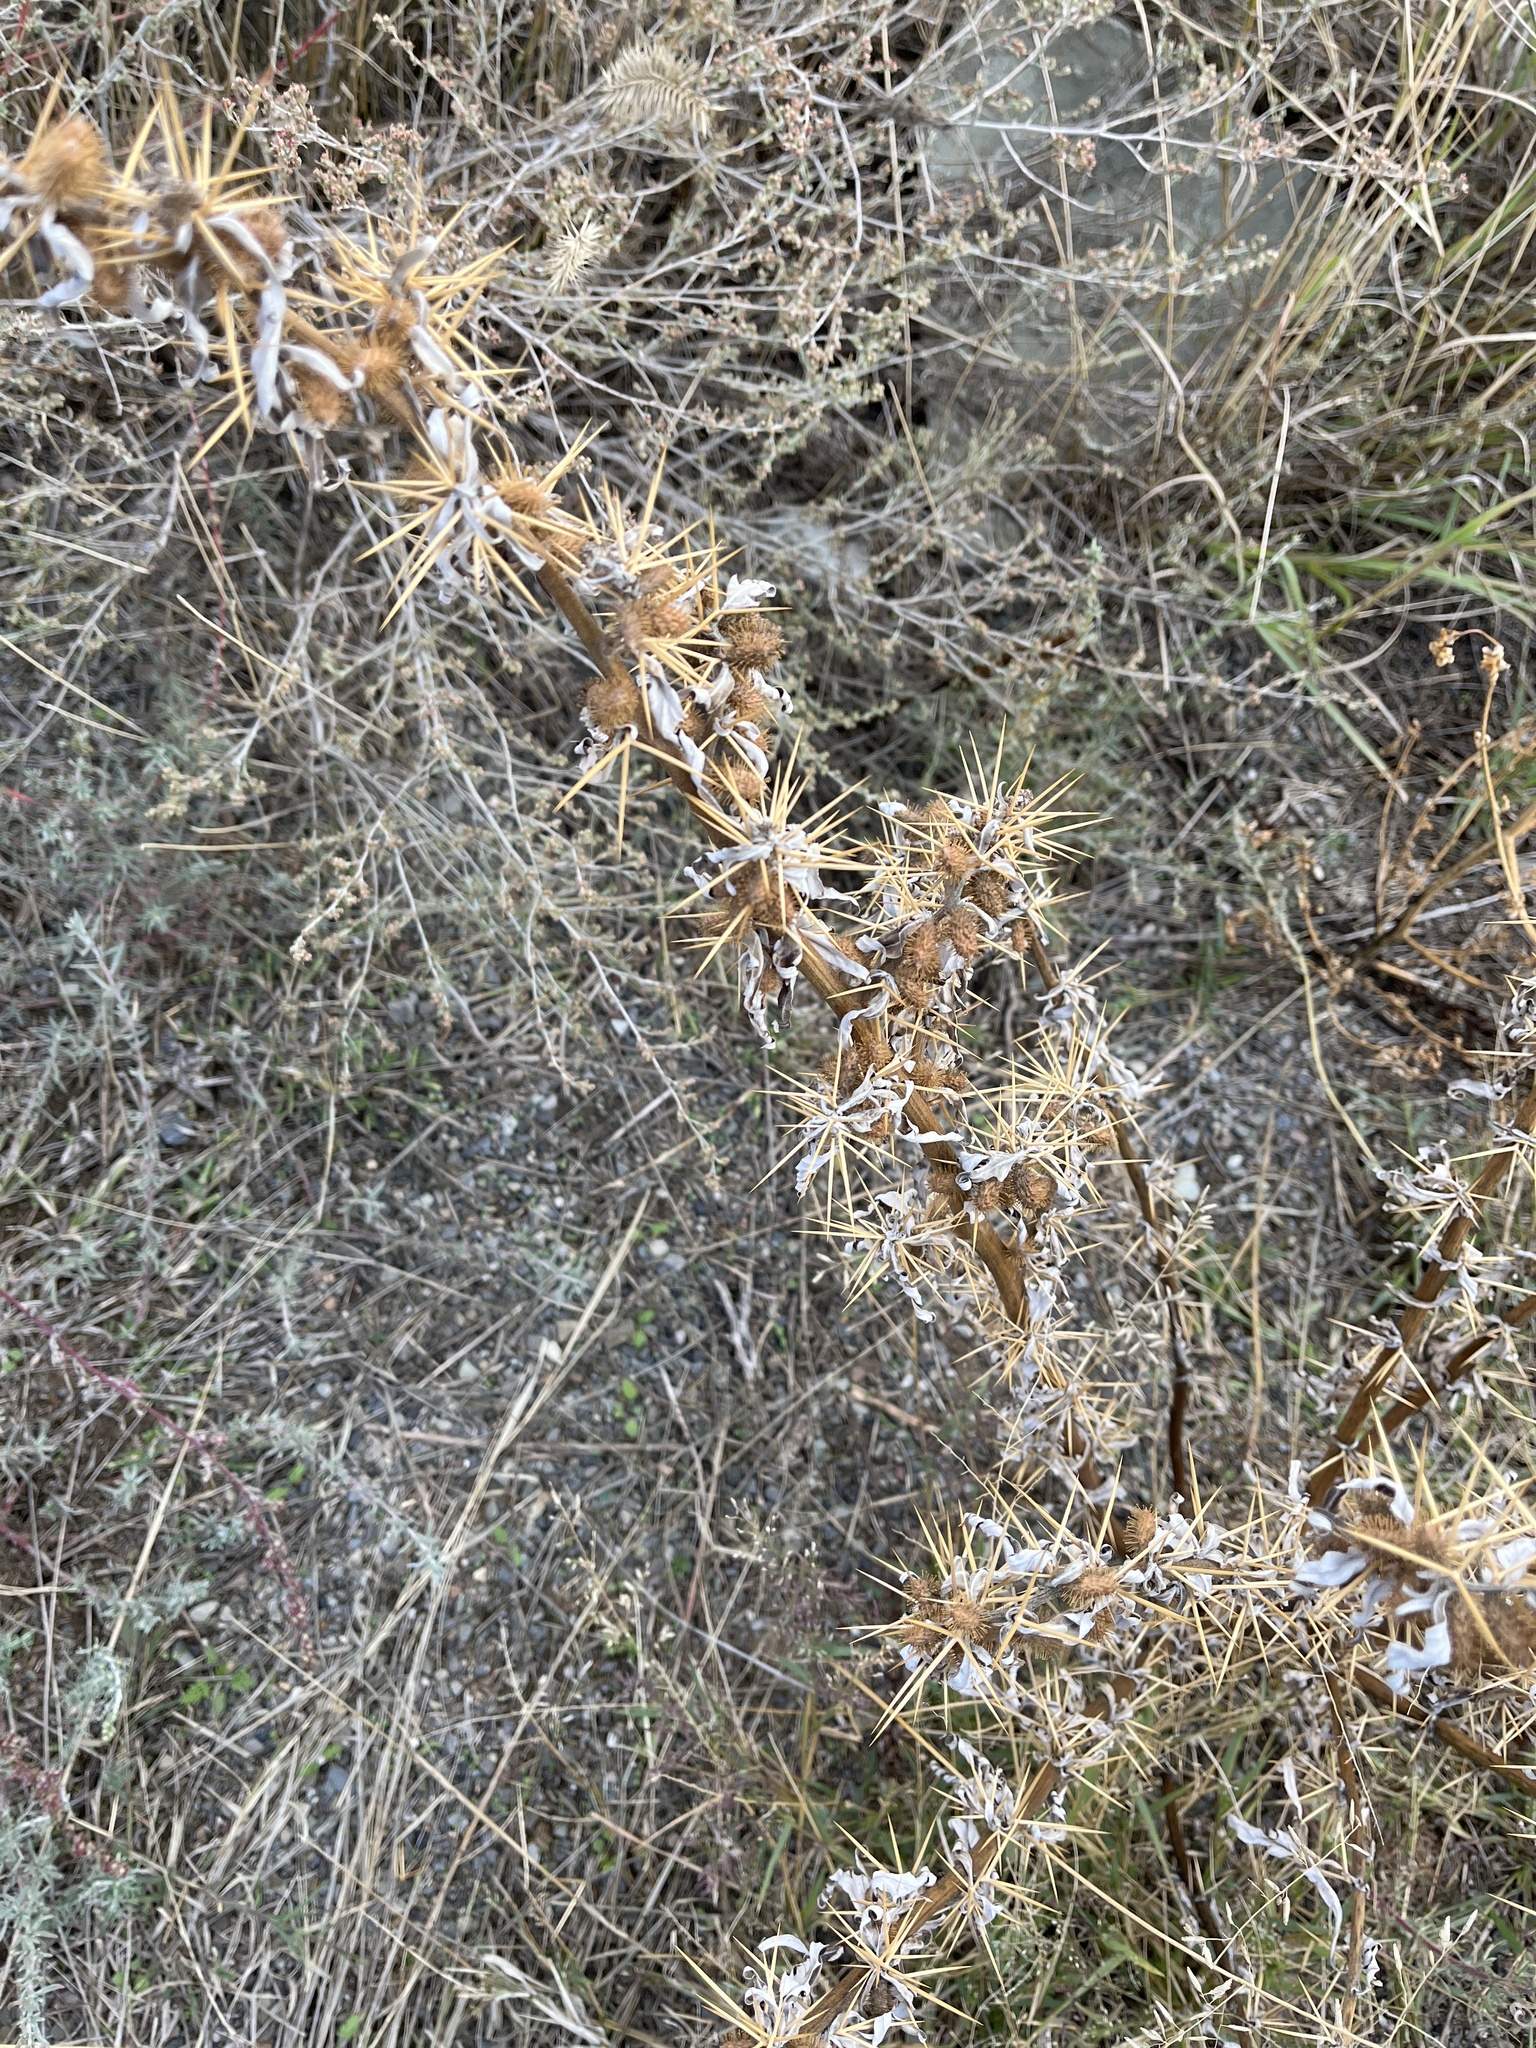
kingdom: Plantae
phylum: Tracheophyta
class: Magnoliopsida
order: Asterales
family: Asteraceae
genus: Xanthium
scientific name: Xanthium spinosum
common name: Spiny cocklebur
